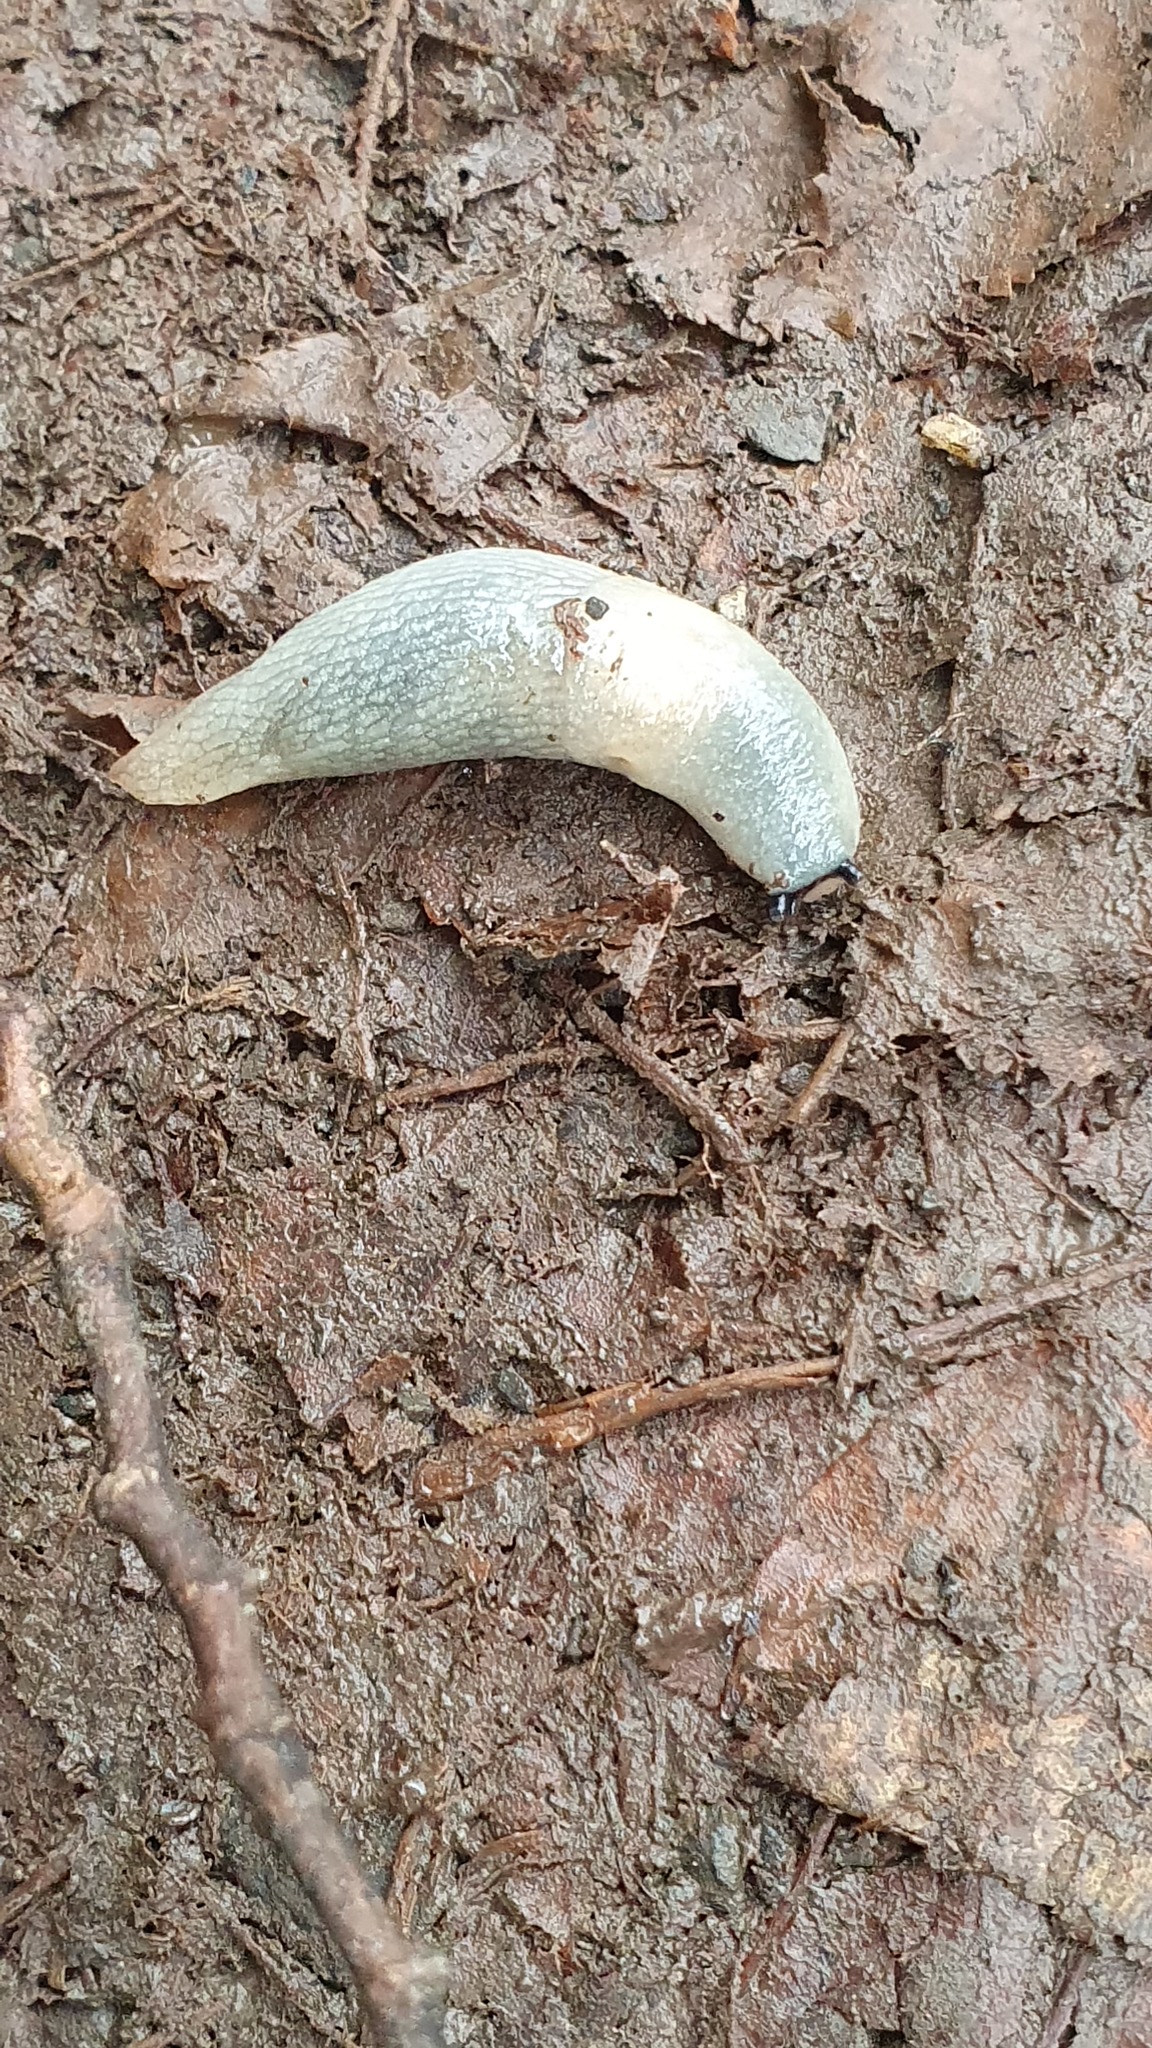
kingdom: Animalia
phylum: Mollusca
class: Gastropoda
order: Stylommatophora
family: Agriolimacidae
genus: Krynickillus
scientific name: Krynickillus melanocephalus
